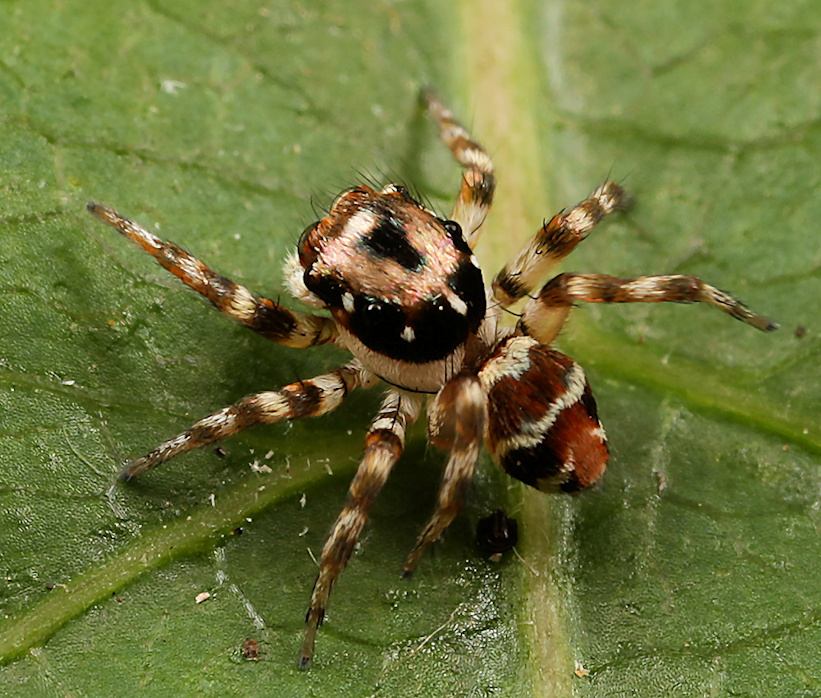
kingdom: Animalia
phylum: Arthropoda
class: Arachnida
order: Araneae
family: Salticidae
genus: Parajotus
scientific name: Parajotus refulgens
